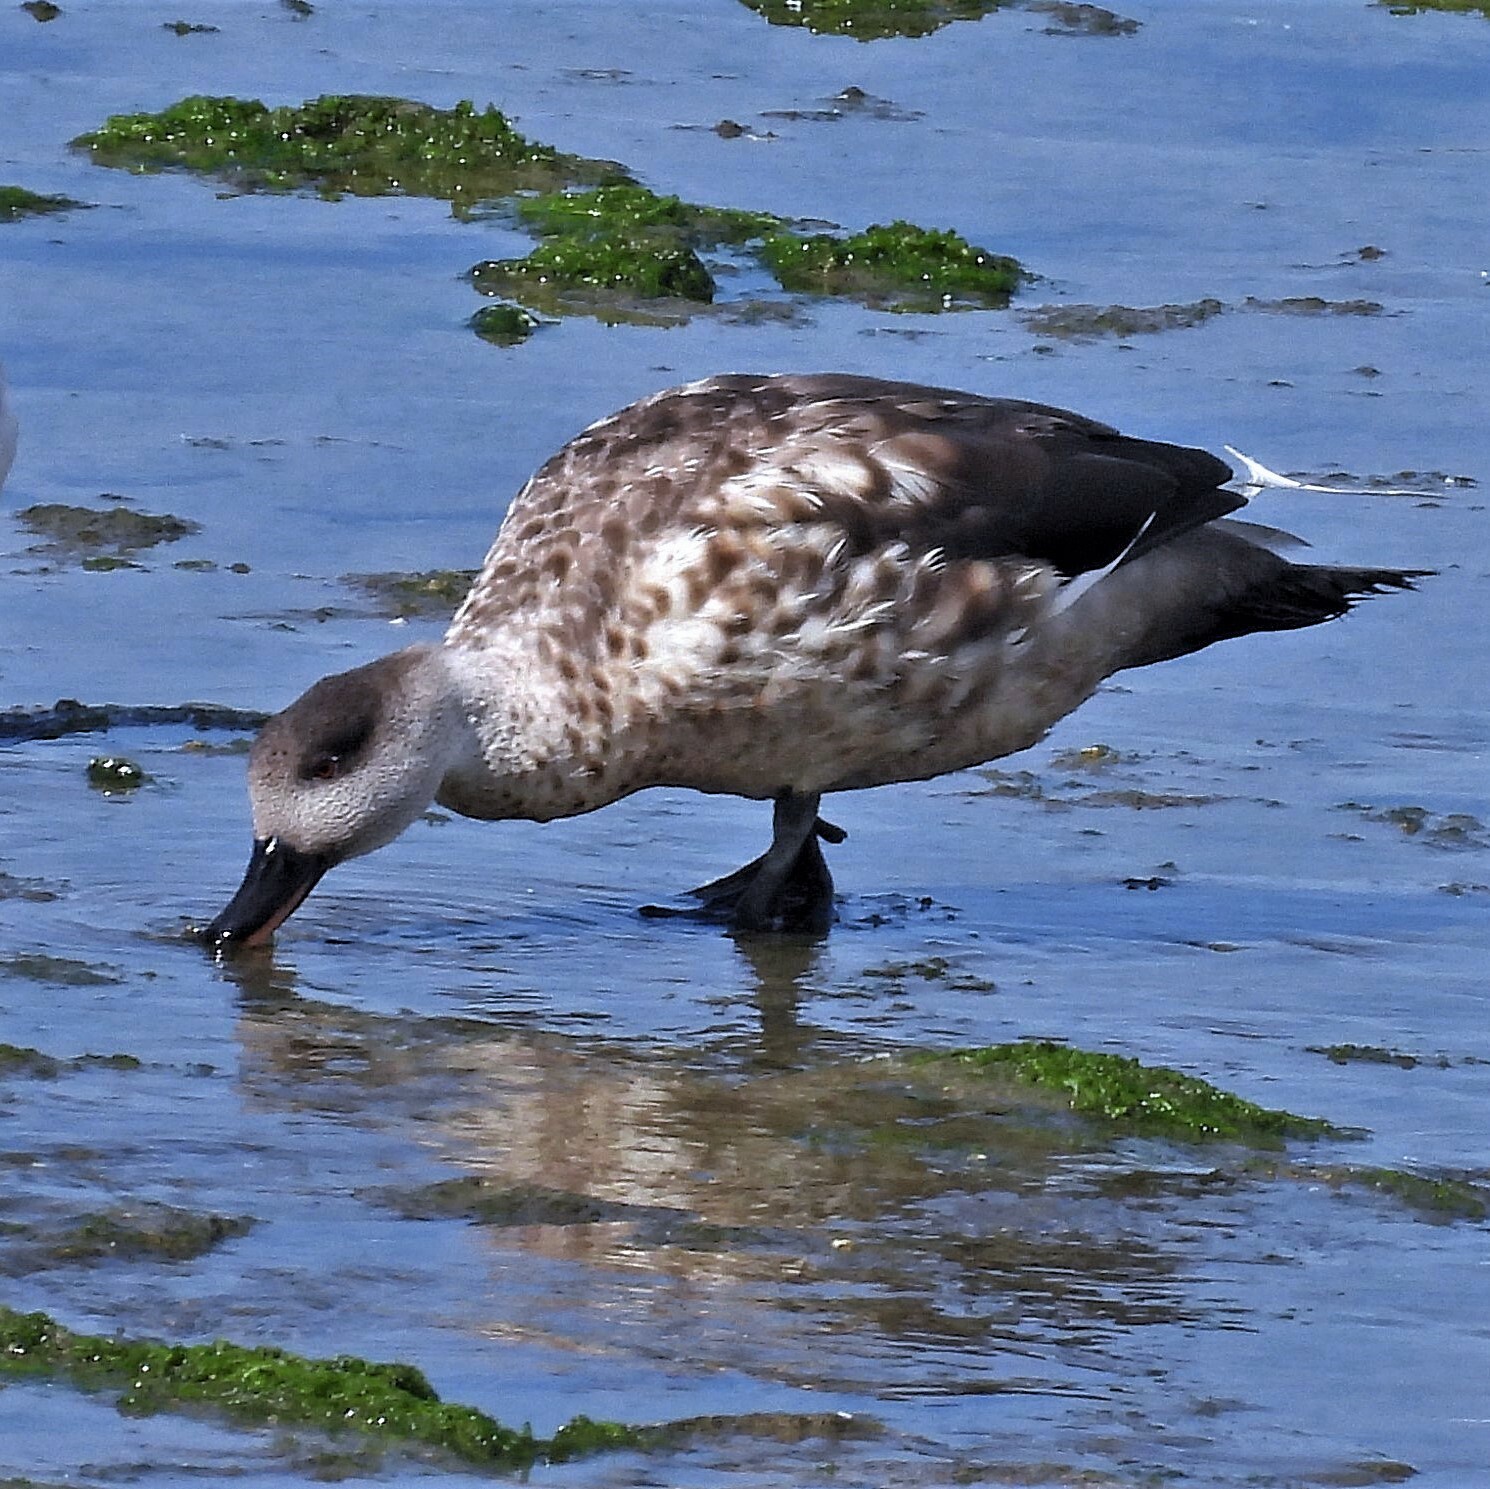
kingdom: Animalia
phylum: Chordata
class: Aves
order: Anseriformes
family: Anatidae
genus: Lophonetta
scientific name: Lophonetta specularioides
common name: Crested duck
